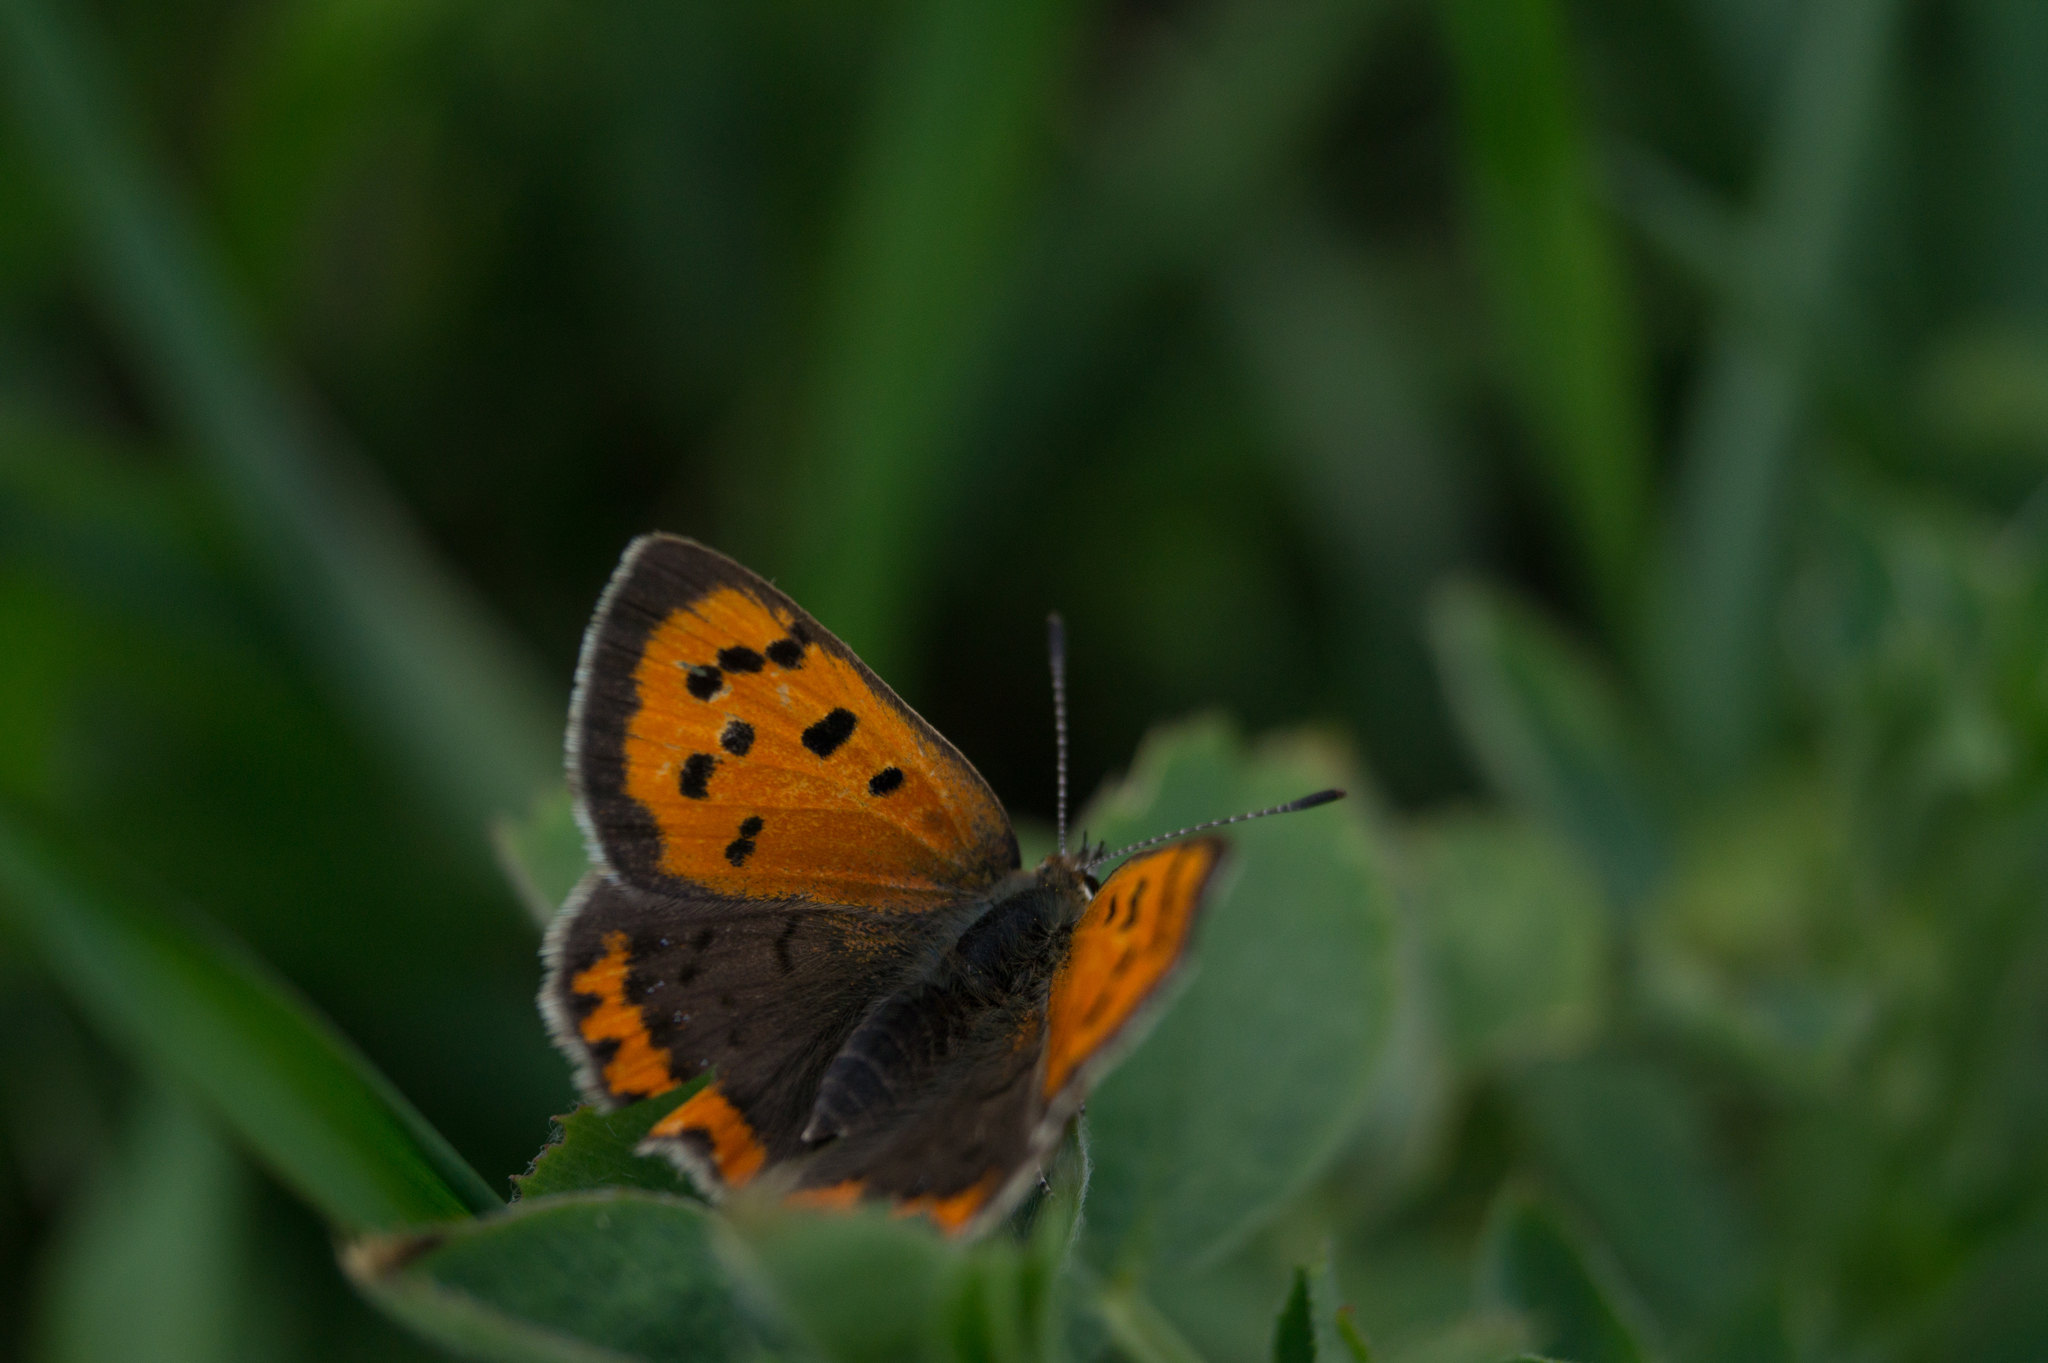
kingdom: Animalia
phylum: Arthropoda
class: Insecta
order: Lepidoptera
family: Lycaenidae
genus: Lycaena
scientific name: Lycaena phlaeas
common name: Small copper
